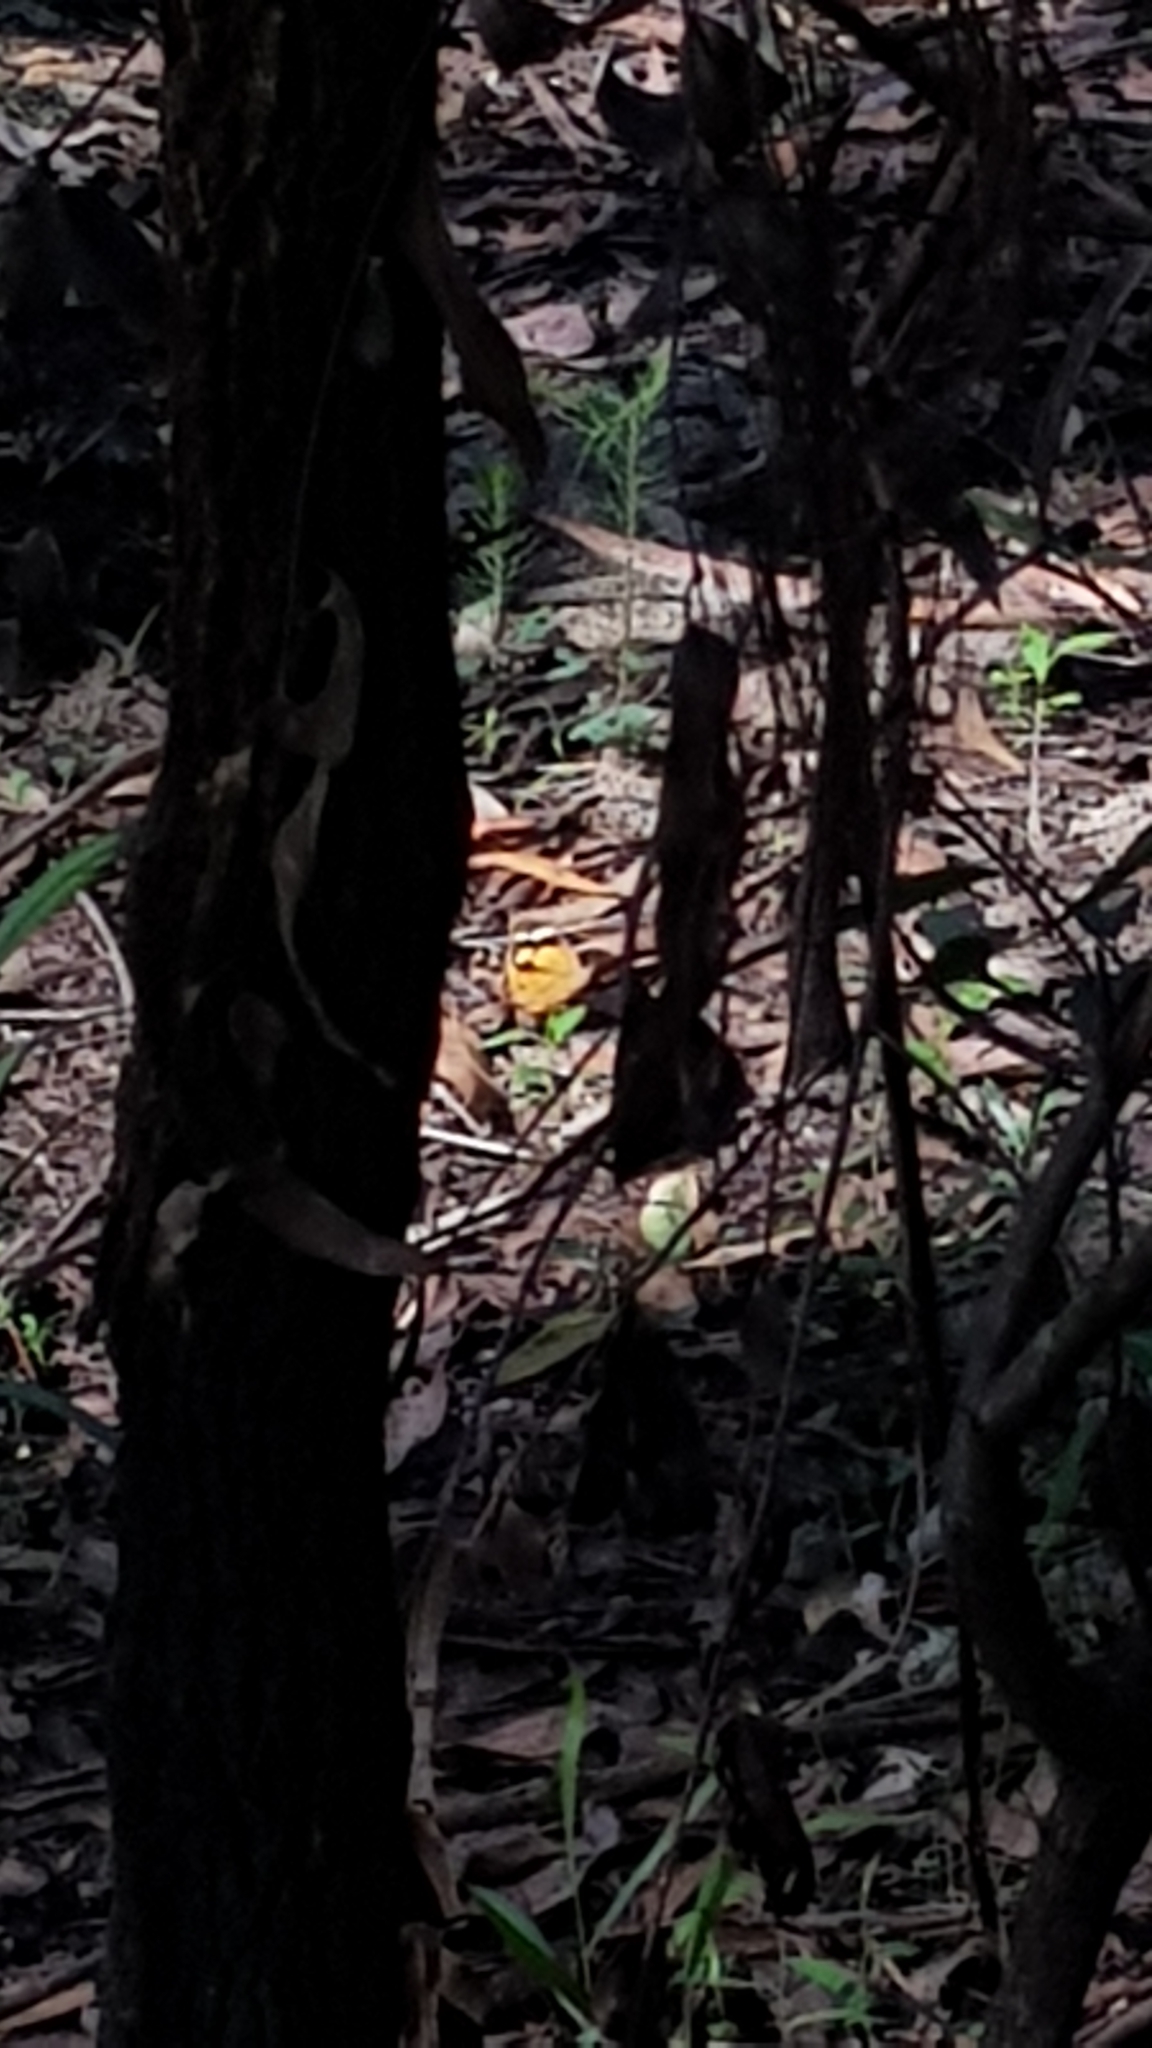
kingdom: Animalia
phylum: Arthropoda
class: Insecta
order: Lepidoptera
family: Nymphalidae
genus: Heteronympha
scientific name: Heteronympha merope
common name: Common brown
